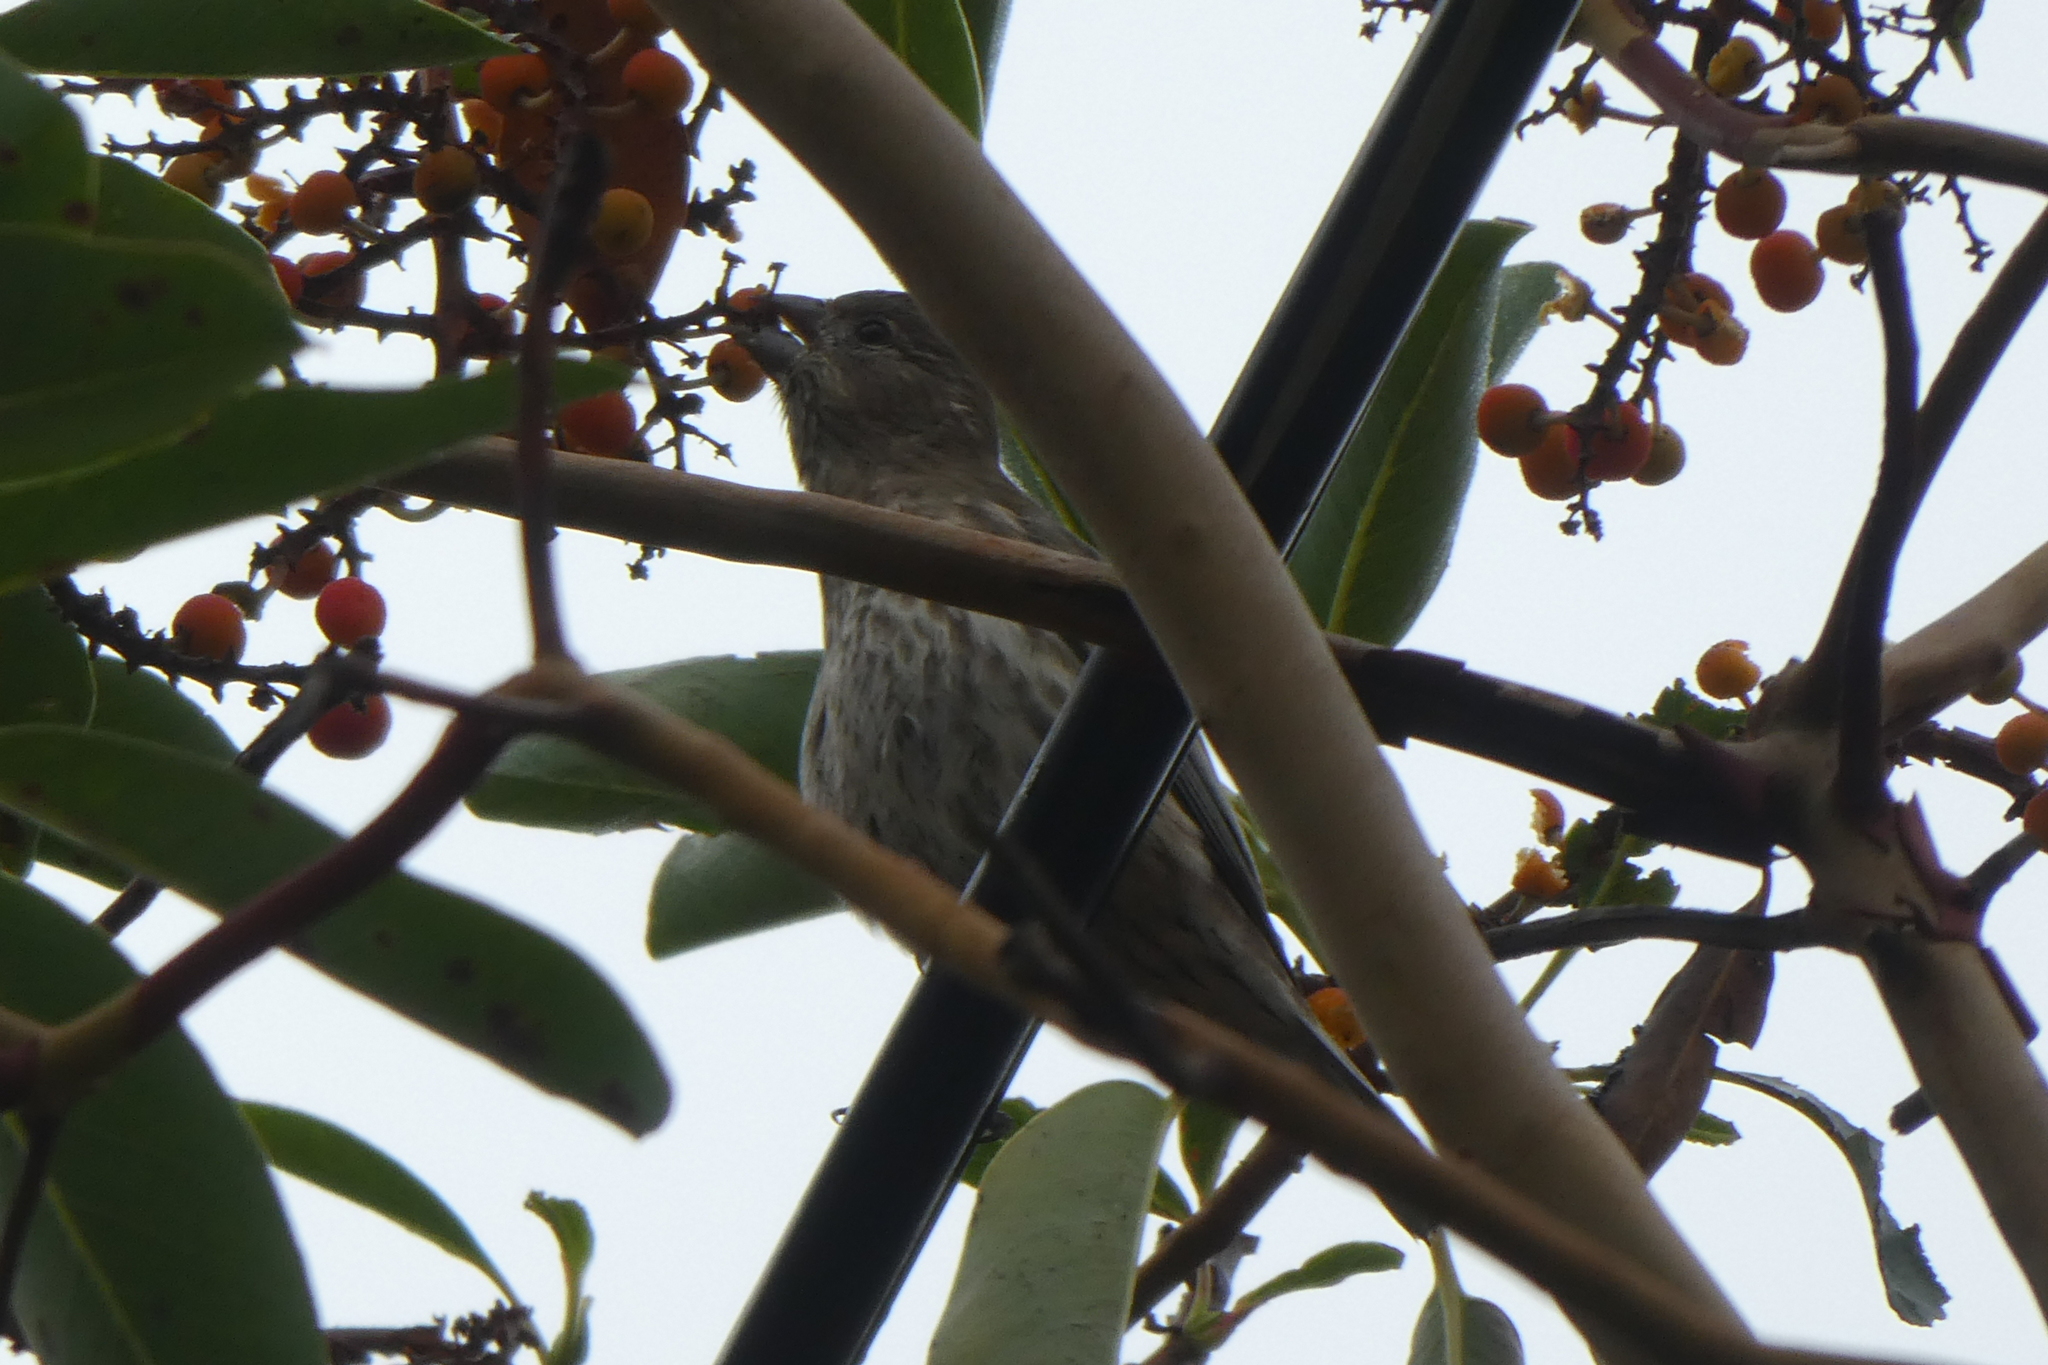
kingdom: Animalia
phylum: Chordata
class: Aves
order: Passeriformes
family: Fringillidae
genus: Haemorhous
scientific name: Haemorhous mexicanus
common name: House finch
